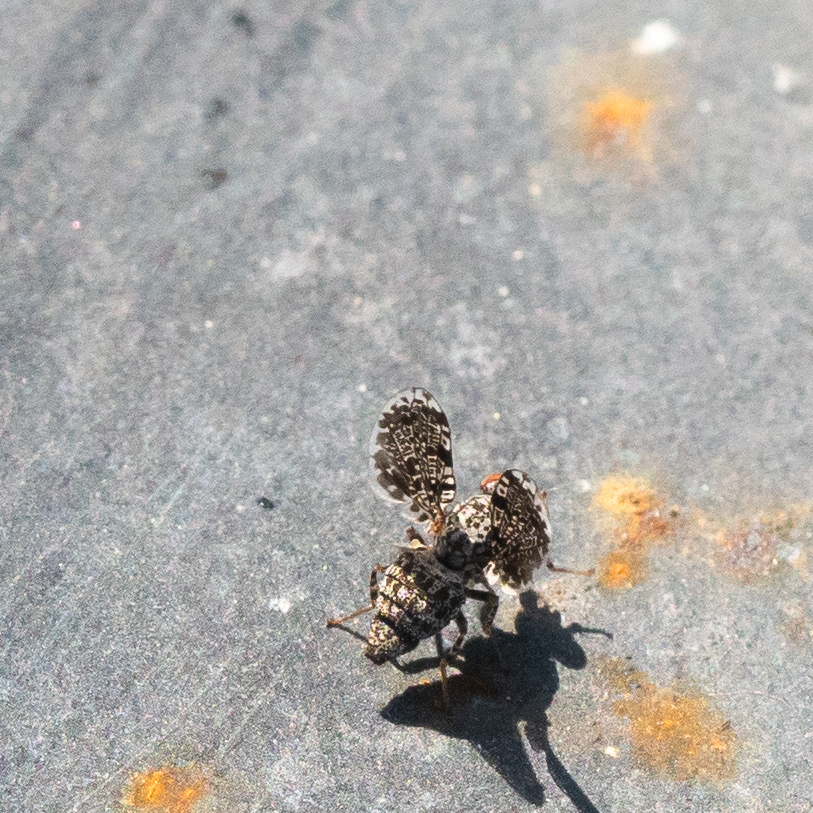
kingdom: Animalia
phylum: Arthropoda
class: Insecta
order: Diptera
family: Ulidiidae
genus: Callopistromyia
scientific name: Callopistromyia annulipes
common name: Peacock fly
